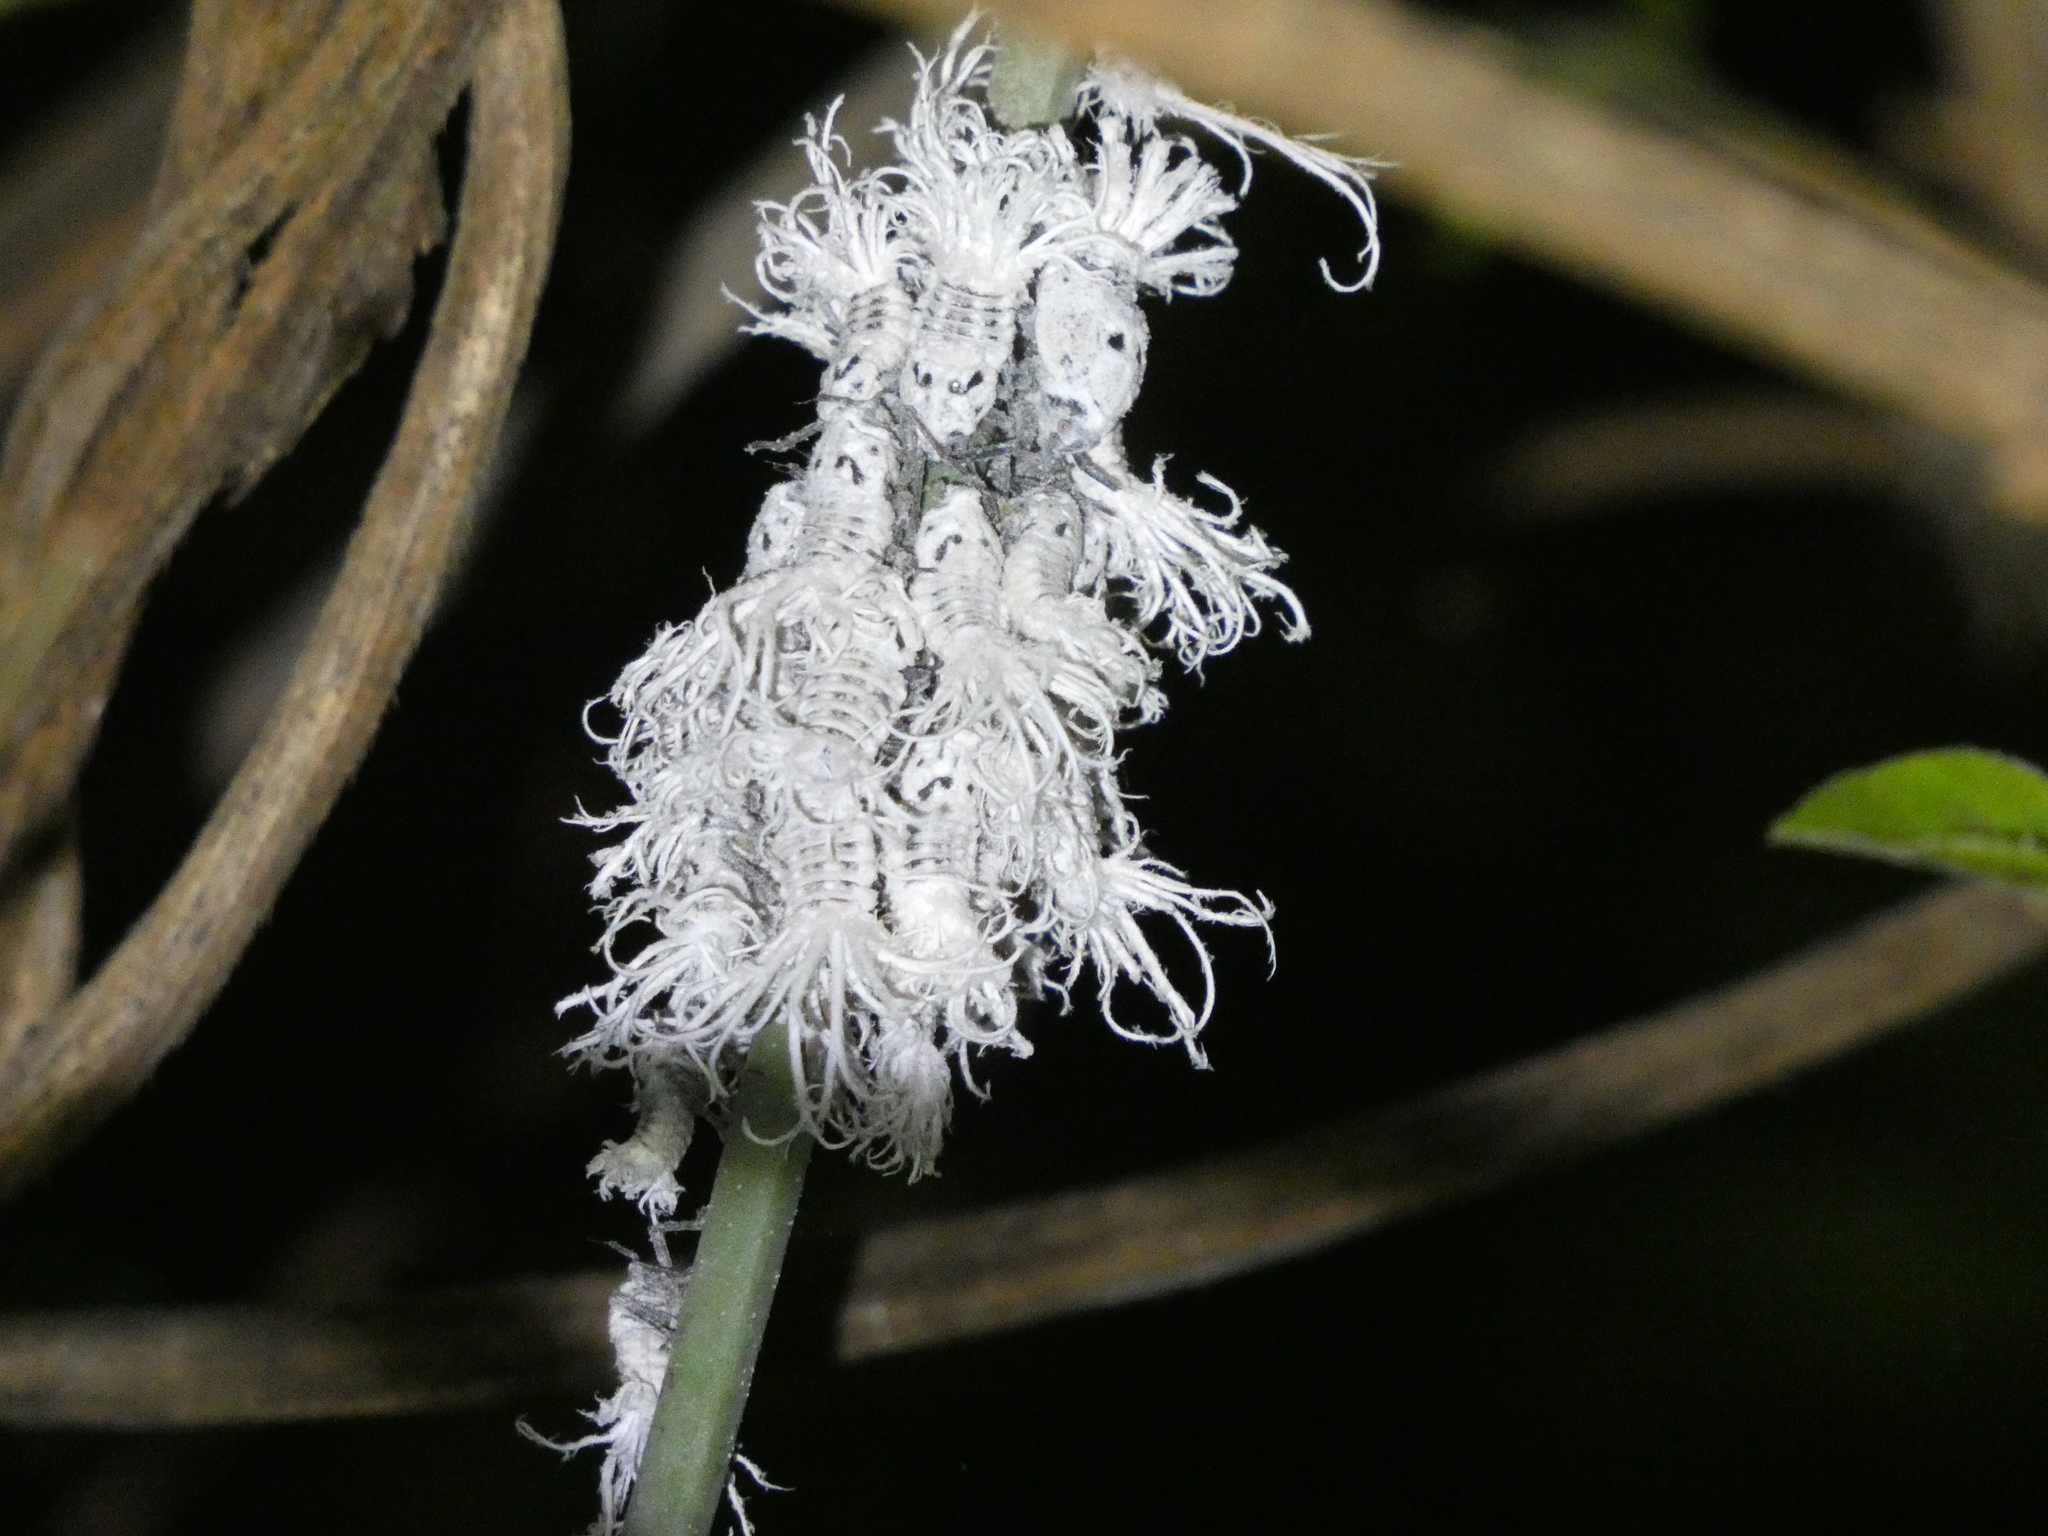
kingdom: Animalia
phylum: Arthropoda
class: Insecta
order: Hemiptera
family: Flatidae
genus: Flatida
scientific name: Flatida rosea
